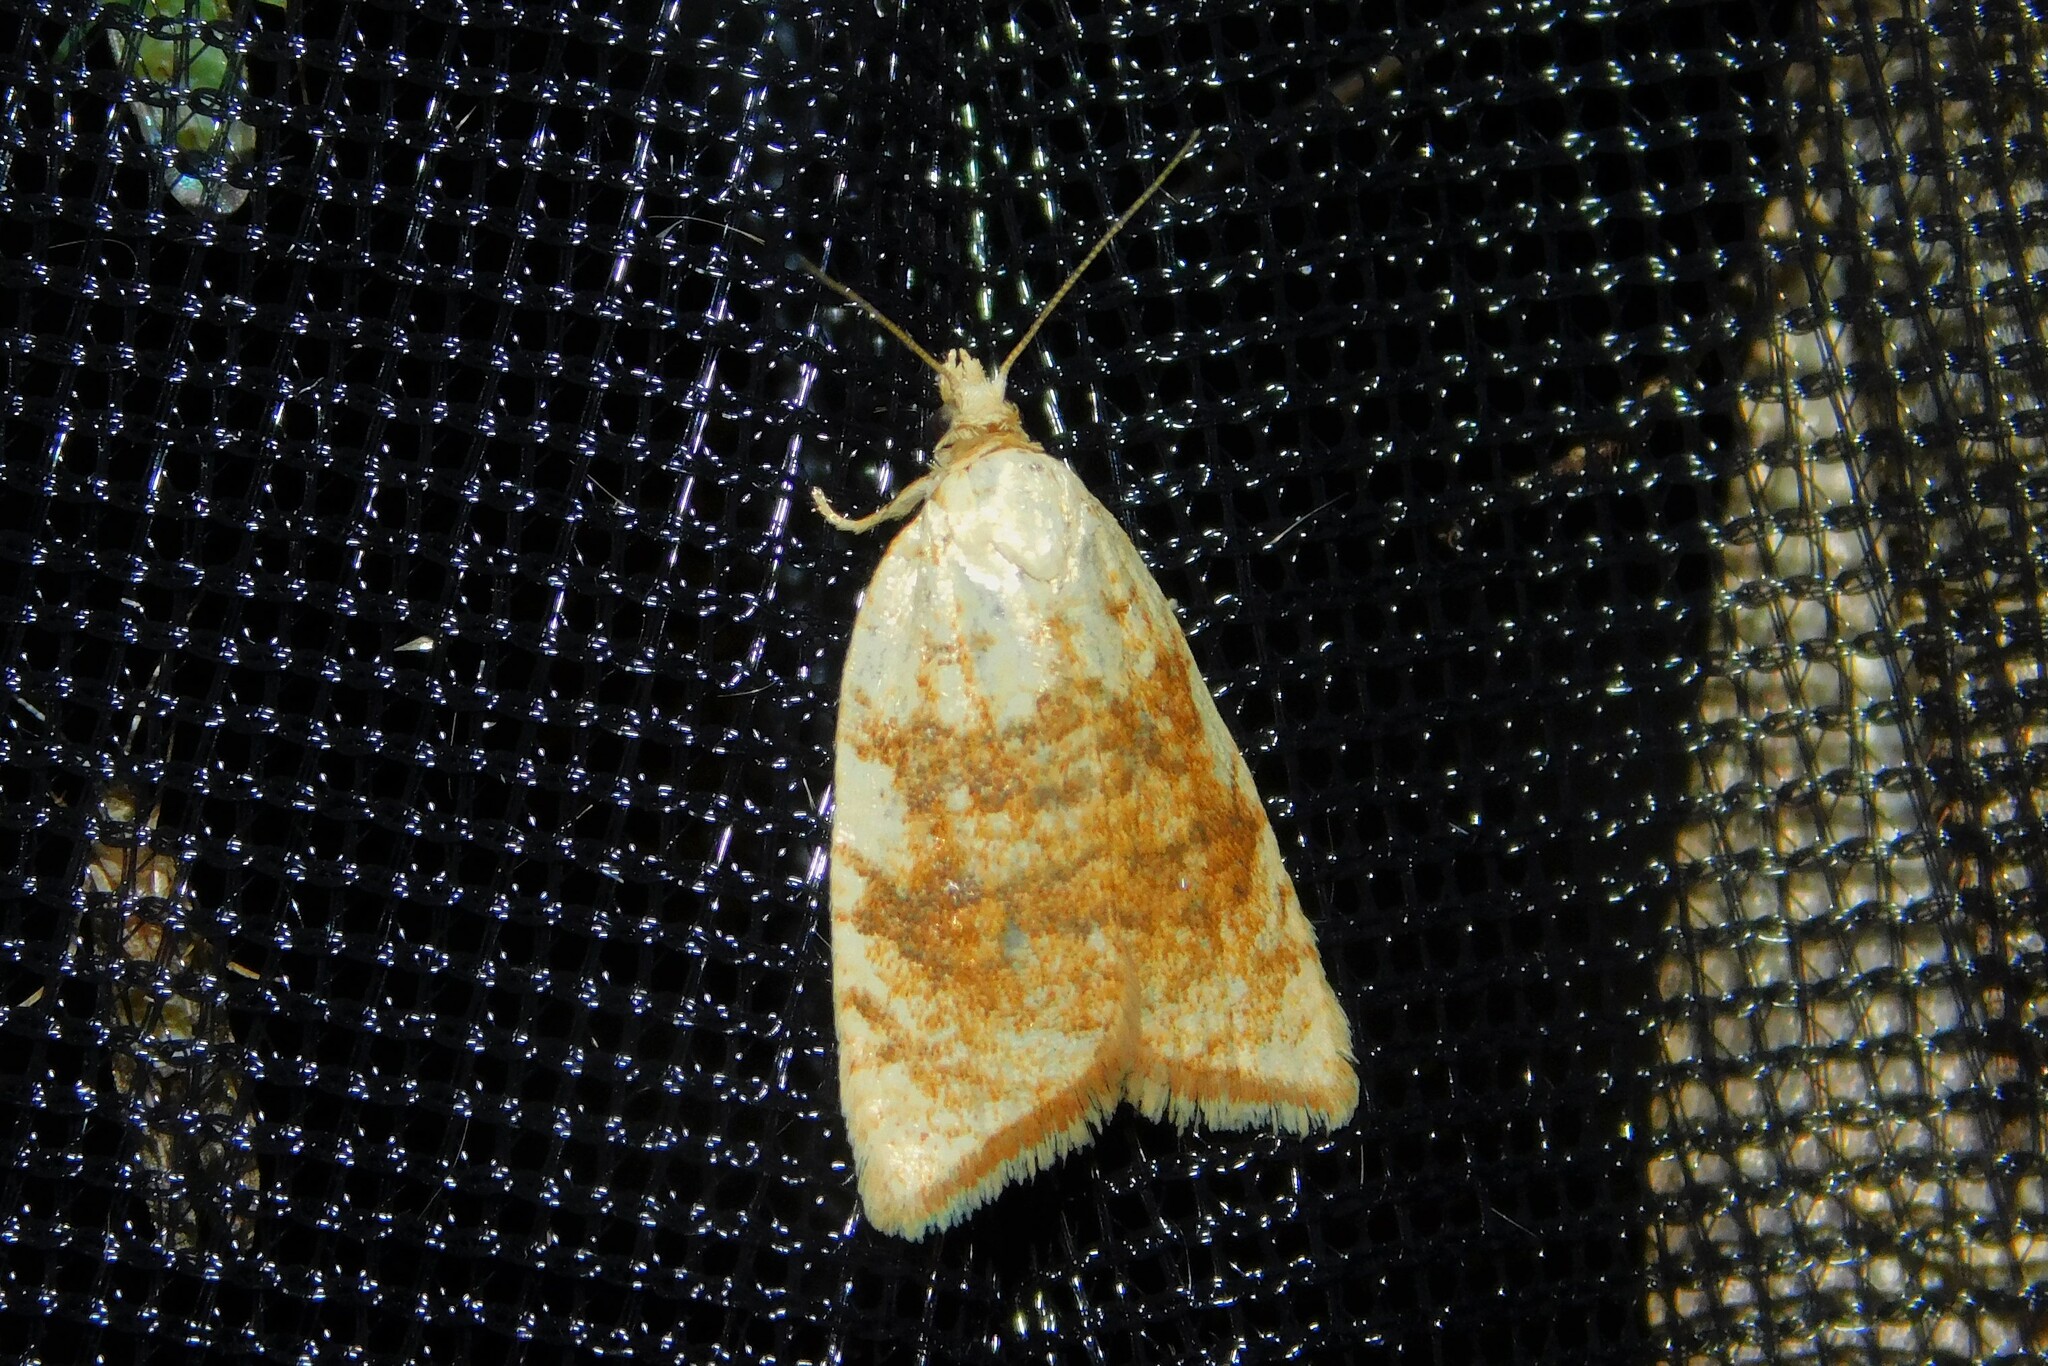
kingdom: Animalia
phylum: Arthropoda
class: Insecta
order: Lepidoptera
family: Tortricidae
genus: Aleimma
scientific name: Aleimma loeflingiana
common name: Yellow oak button
